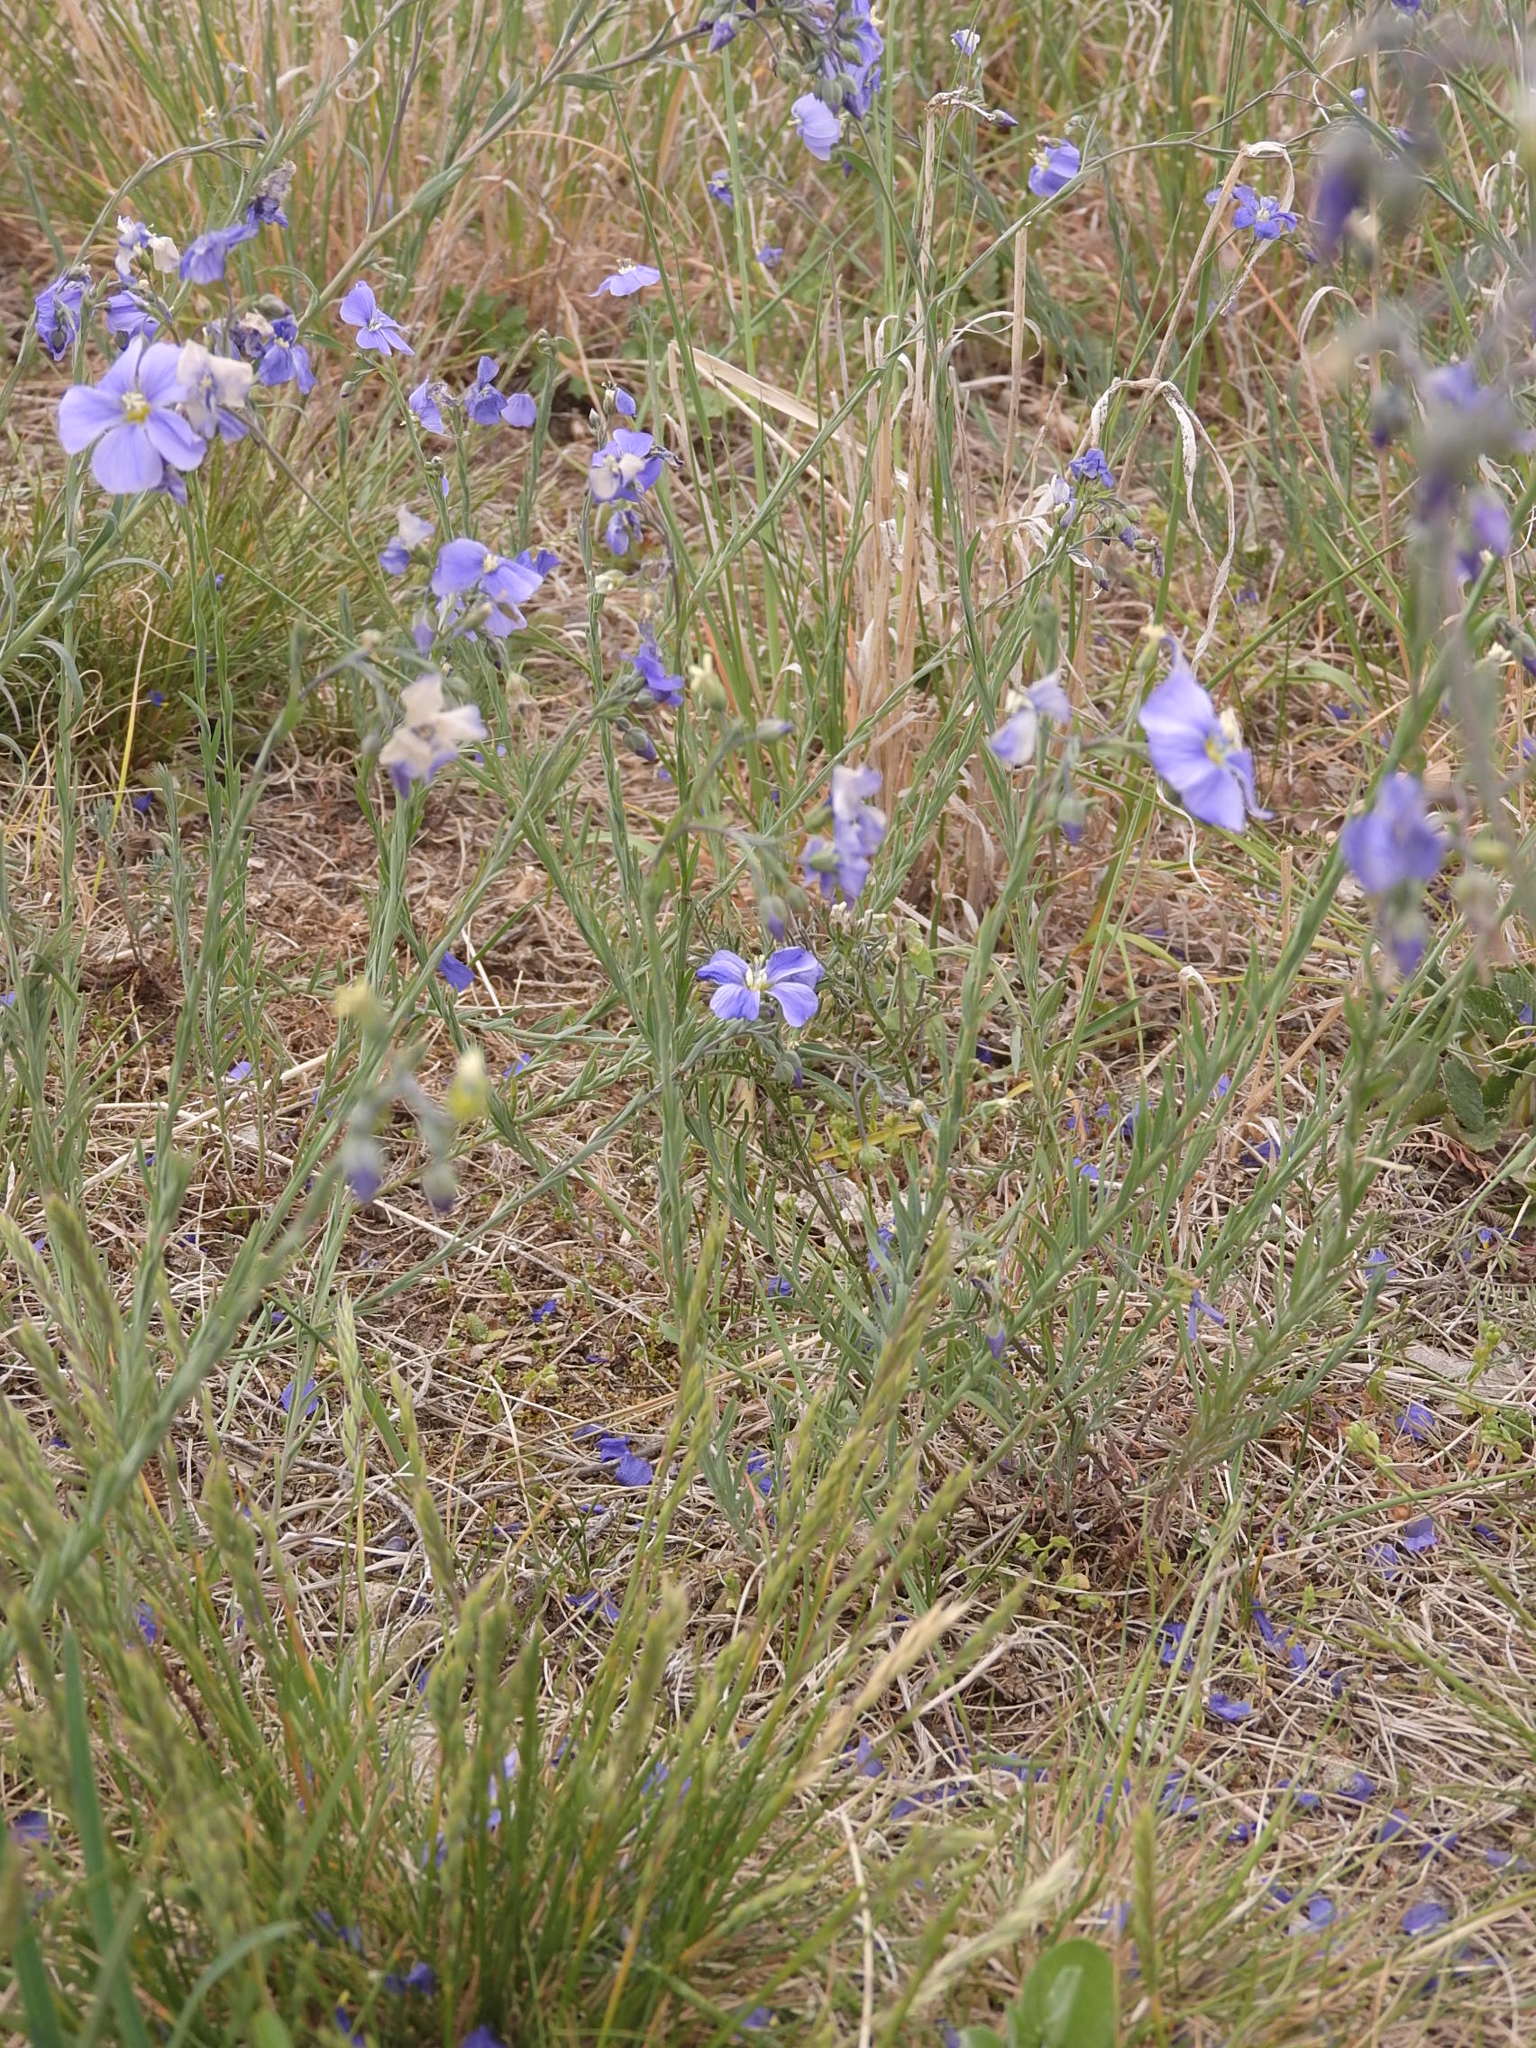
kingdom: Plantae
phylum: Tracheophyta
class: Magnoliopsida
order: Malpighiales
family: Linaceae
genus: Linum
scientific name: Linum austriacum
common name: Austrian flax
